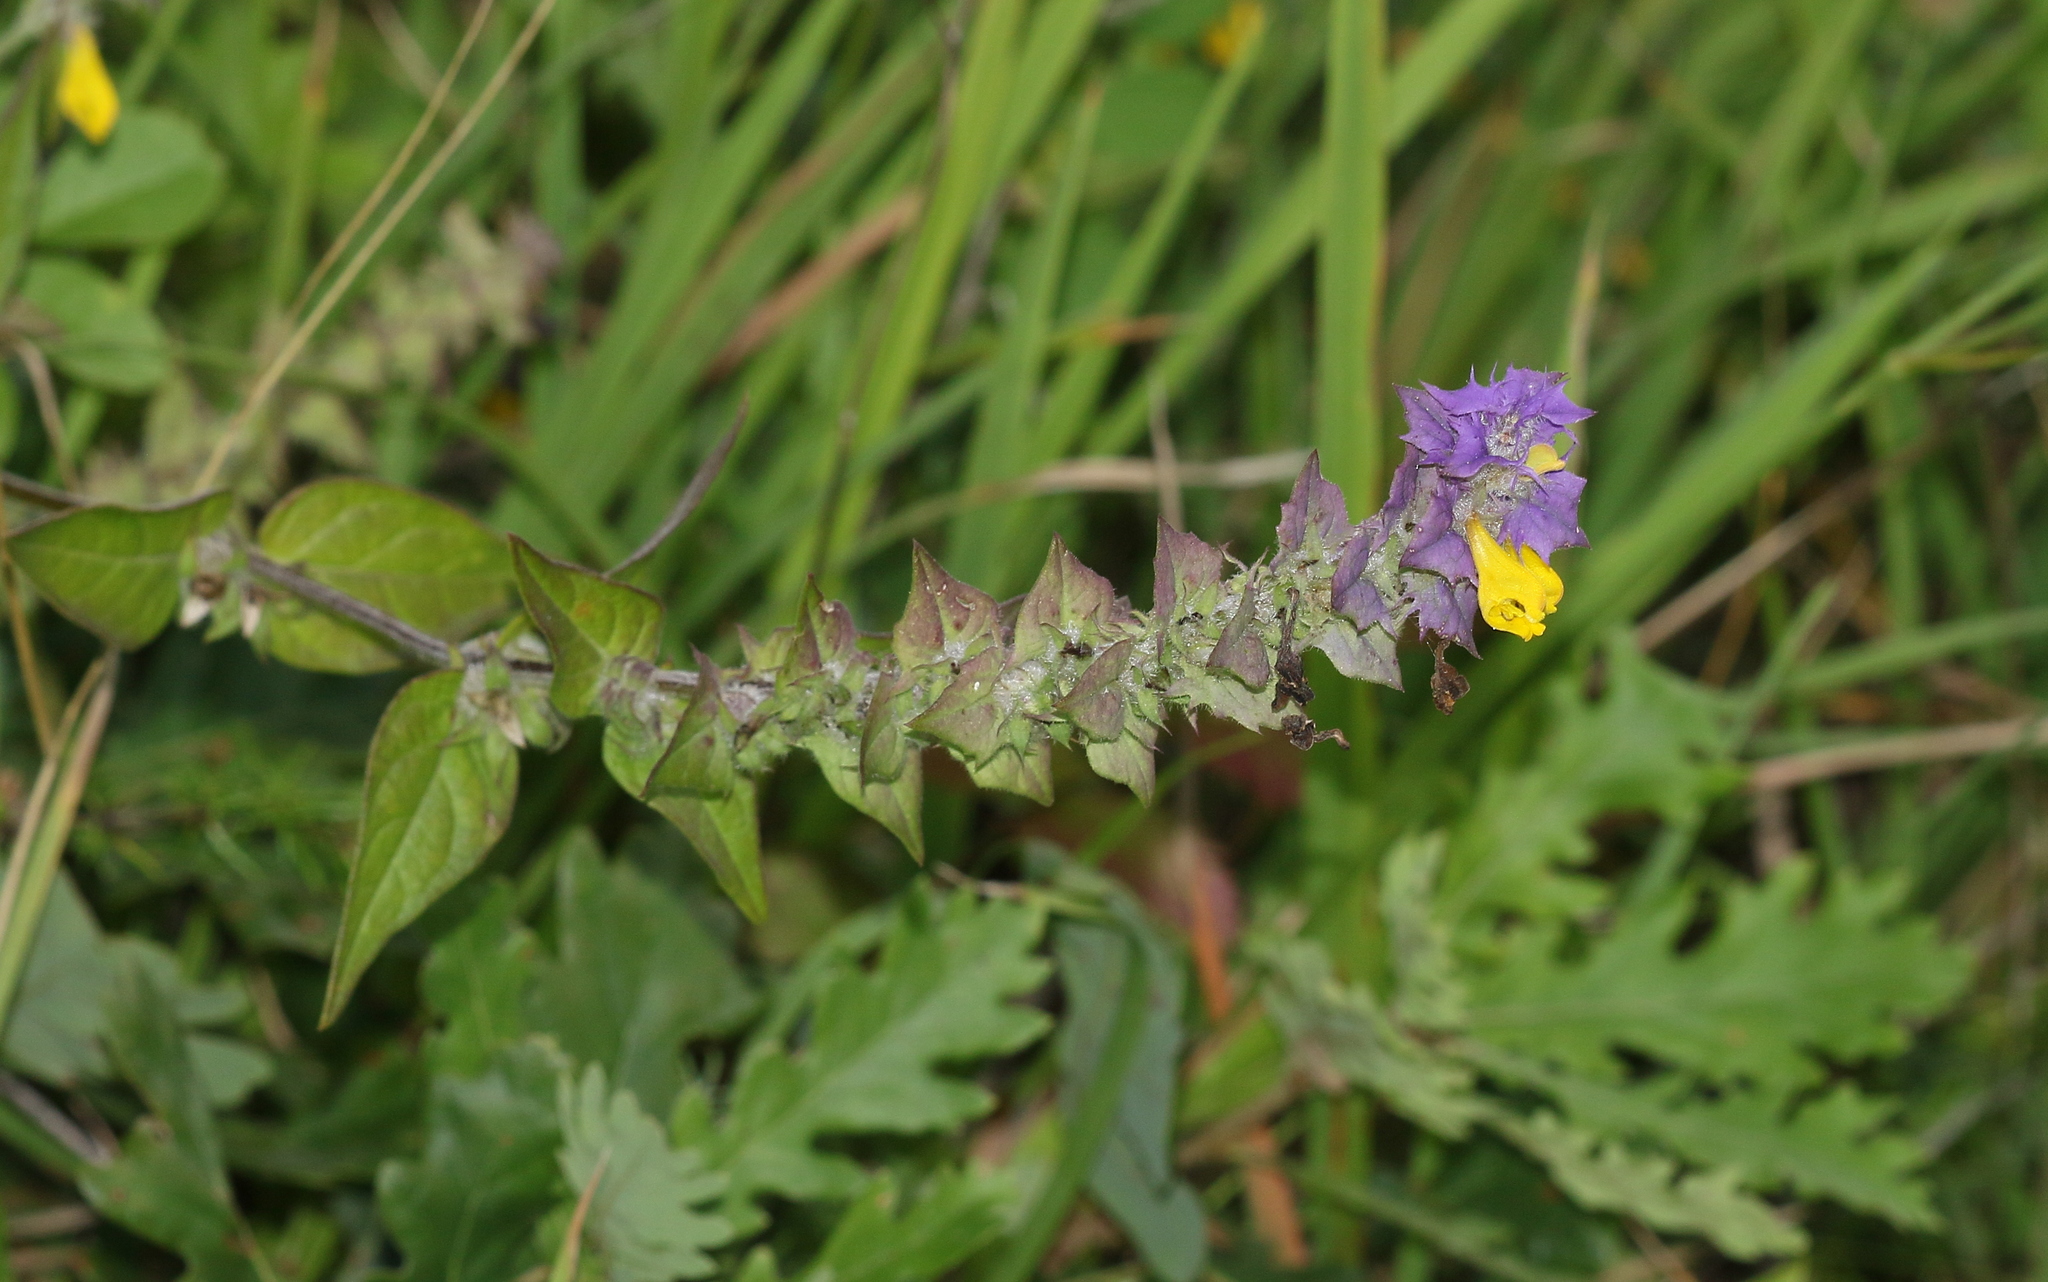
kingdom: Plantae
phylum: Tracheophyta
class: Magnoliopsida
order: Lamiales
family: Orobanchaceae
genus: Melampyrum
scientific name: Melampyrum nemorosum
